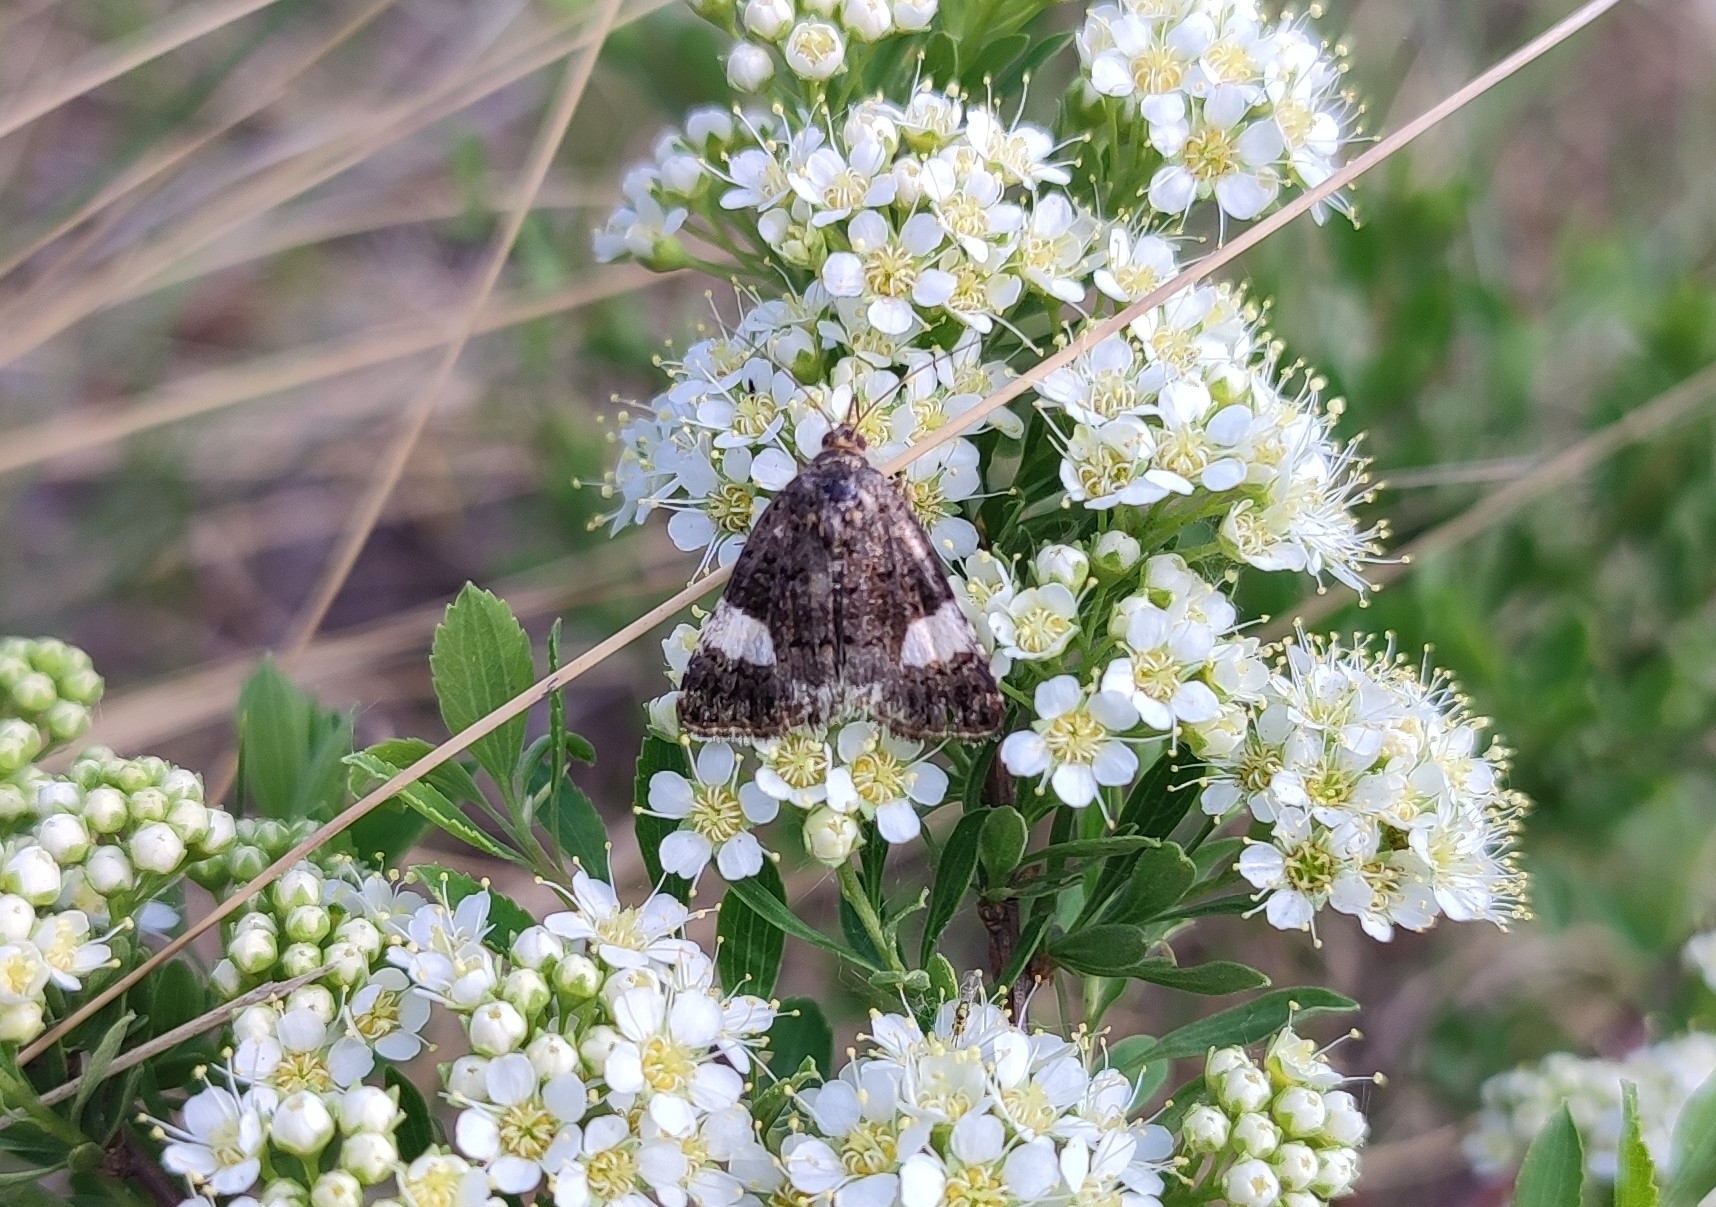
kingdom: Animalia
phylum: Arthropoda
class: Insecta
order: Lepidoptera
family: Erebidae
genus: Tyta
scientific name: Tyta luctuosa
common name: Four-spotted
